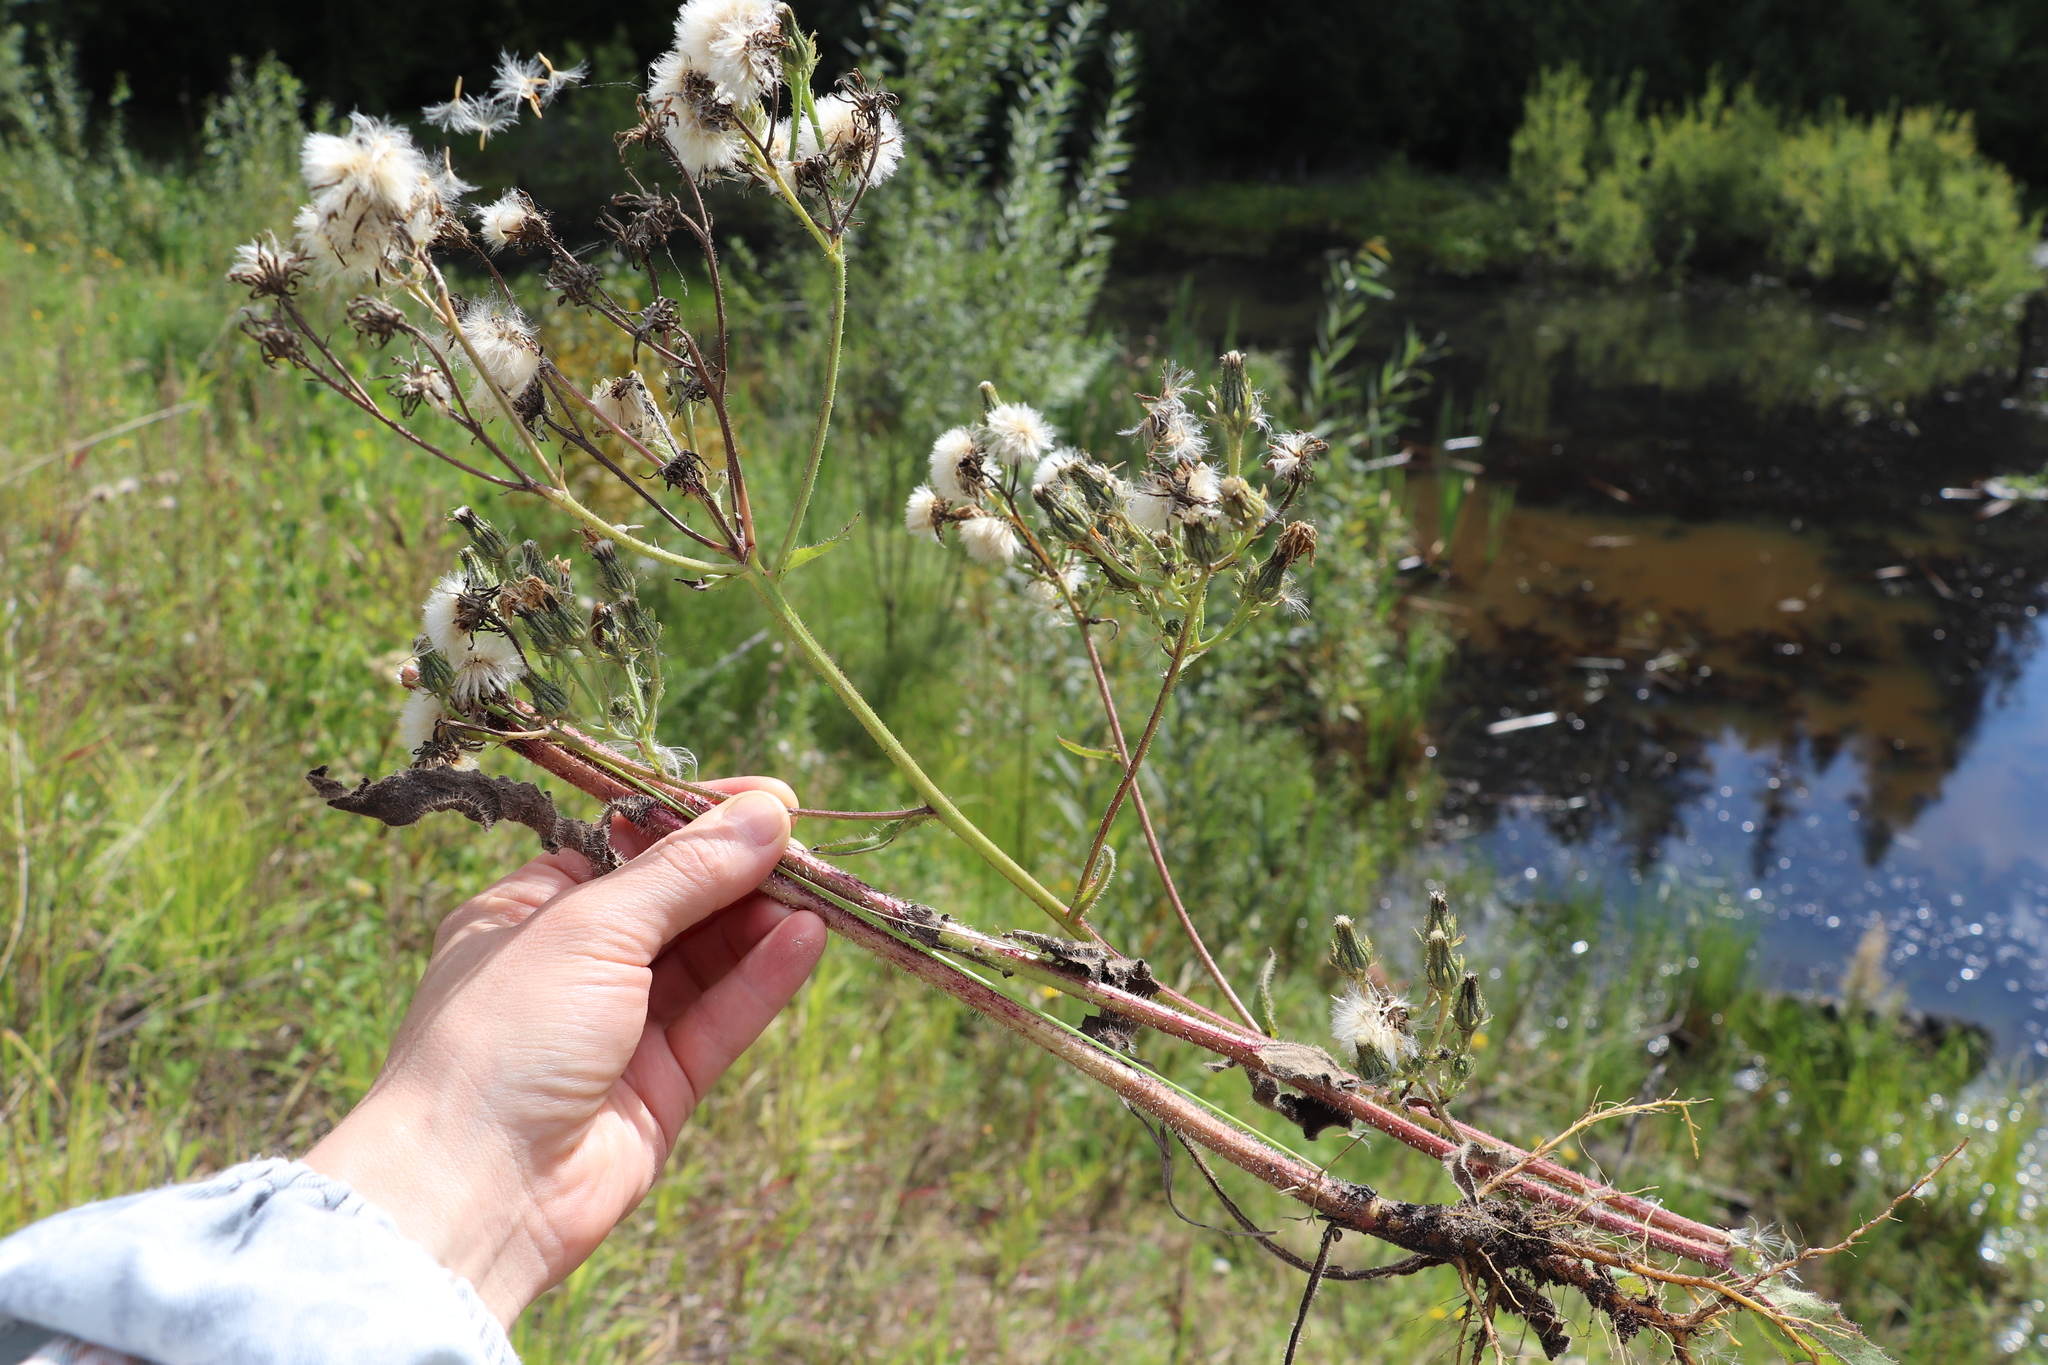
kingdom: Plantae
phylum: Tracheophyta
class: Magnoliopsida
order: Asterales
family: Asteraceae
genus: Picris
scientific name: Picris hieracioides
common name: Hawkweed oxtongue
